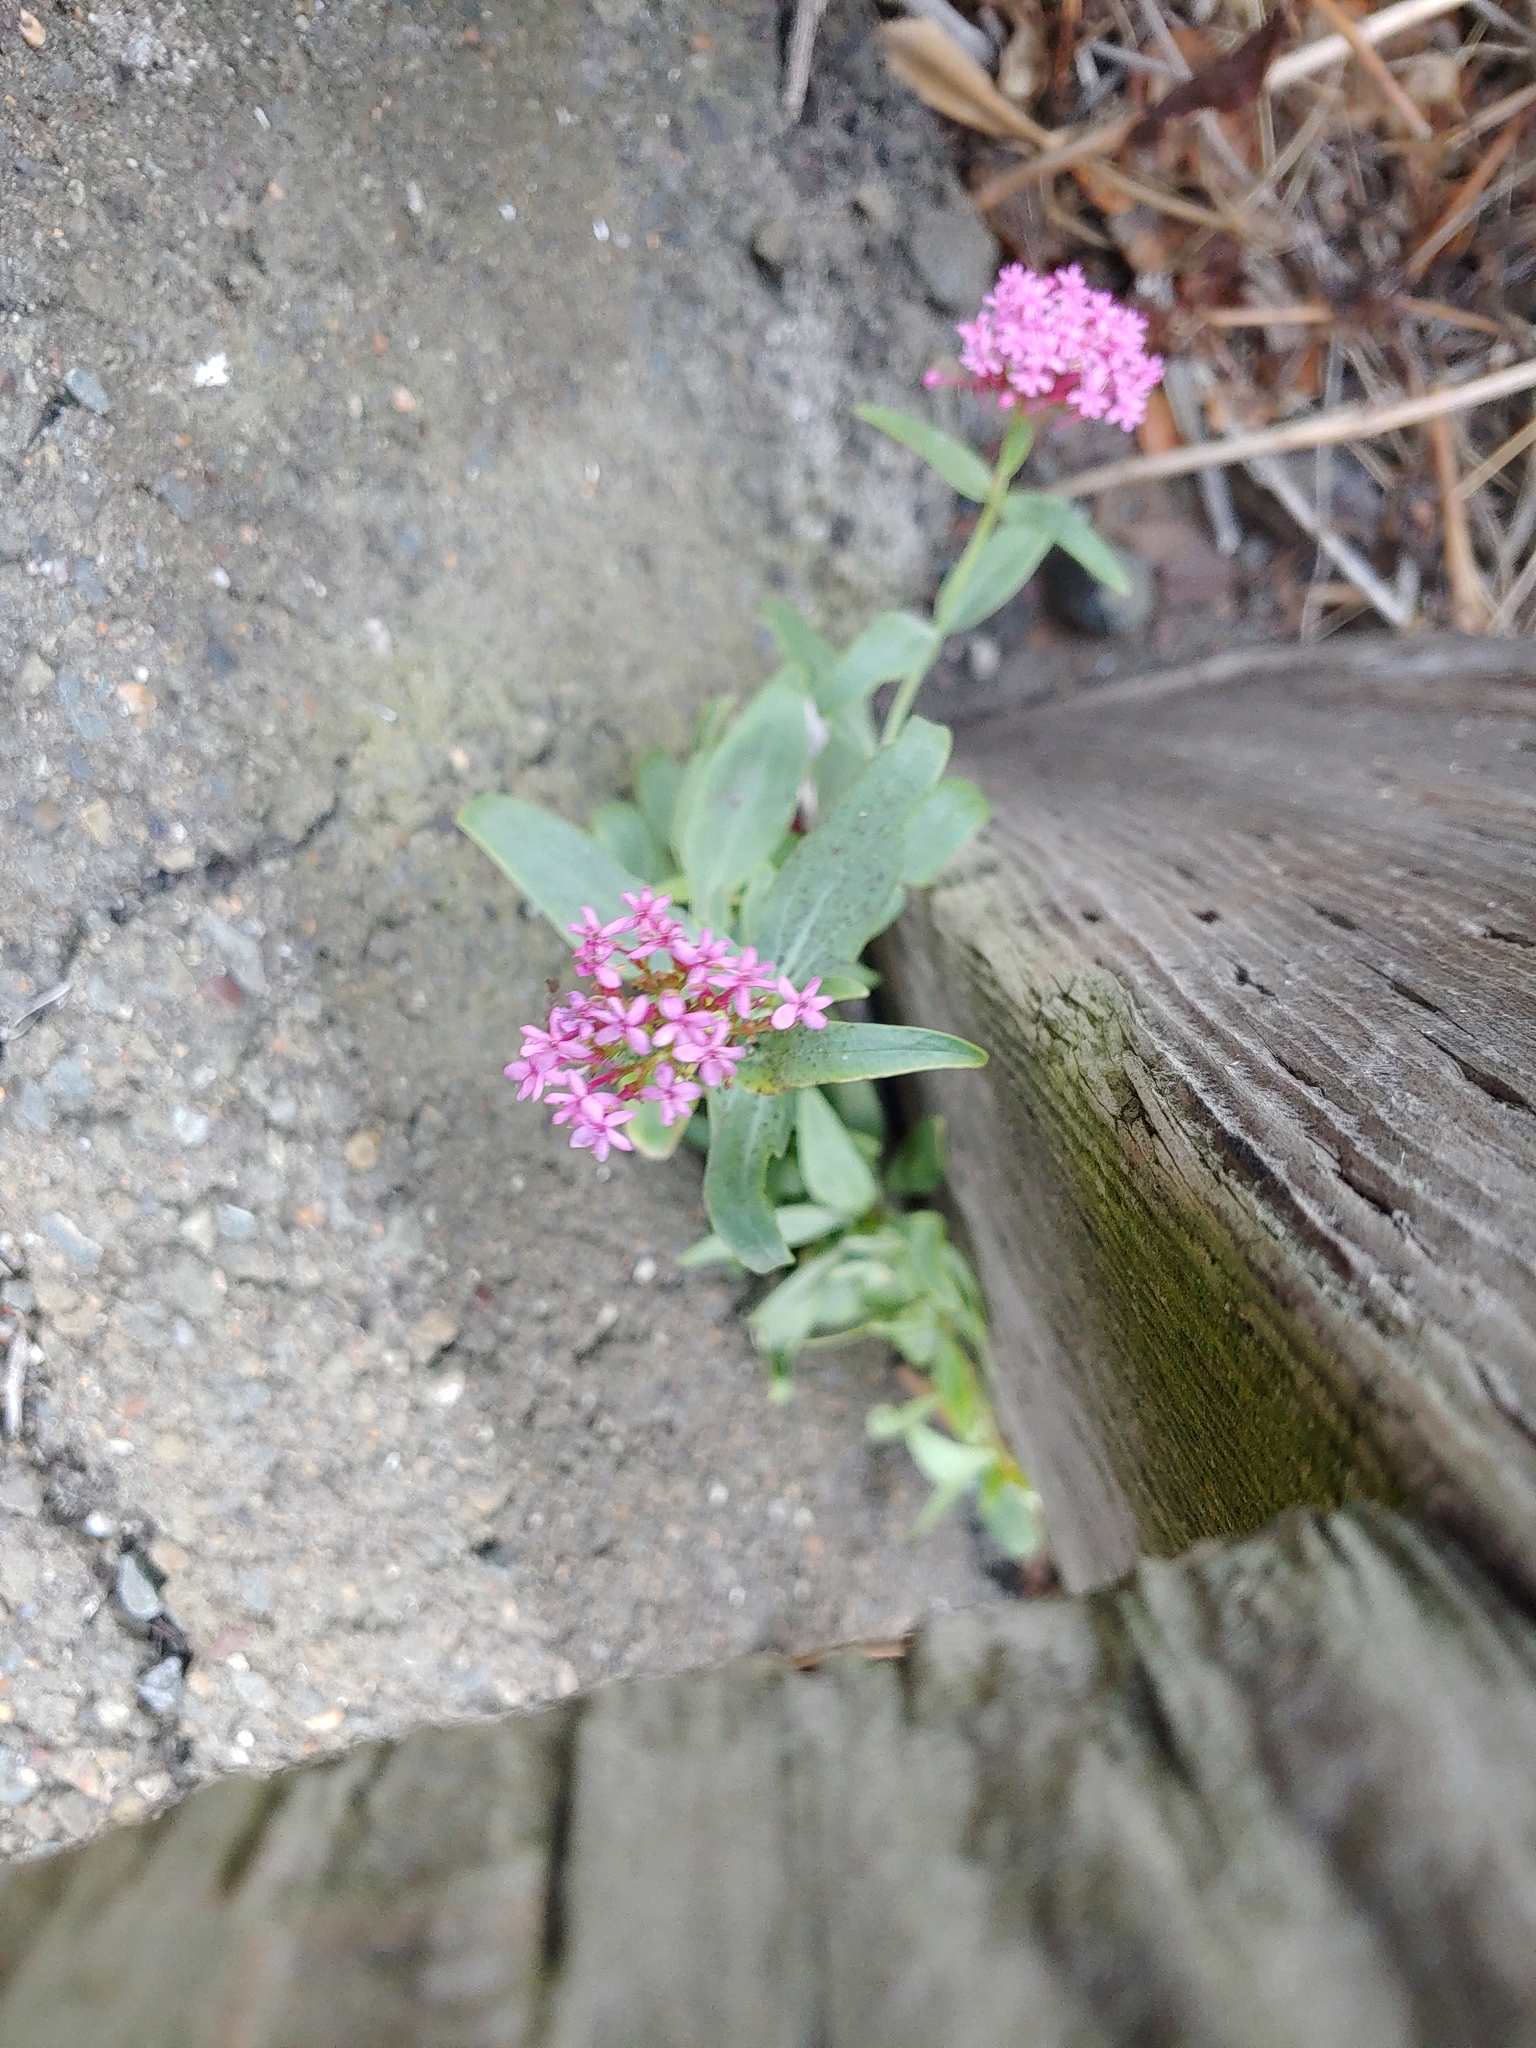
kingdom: Plantae
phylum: Tracheophyta
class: Magnoliopsida
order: Dipsacales
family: Caprifoliaceae
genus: Centranthus
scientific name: Centranthus ruber
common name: Red valerian
